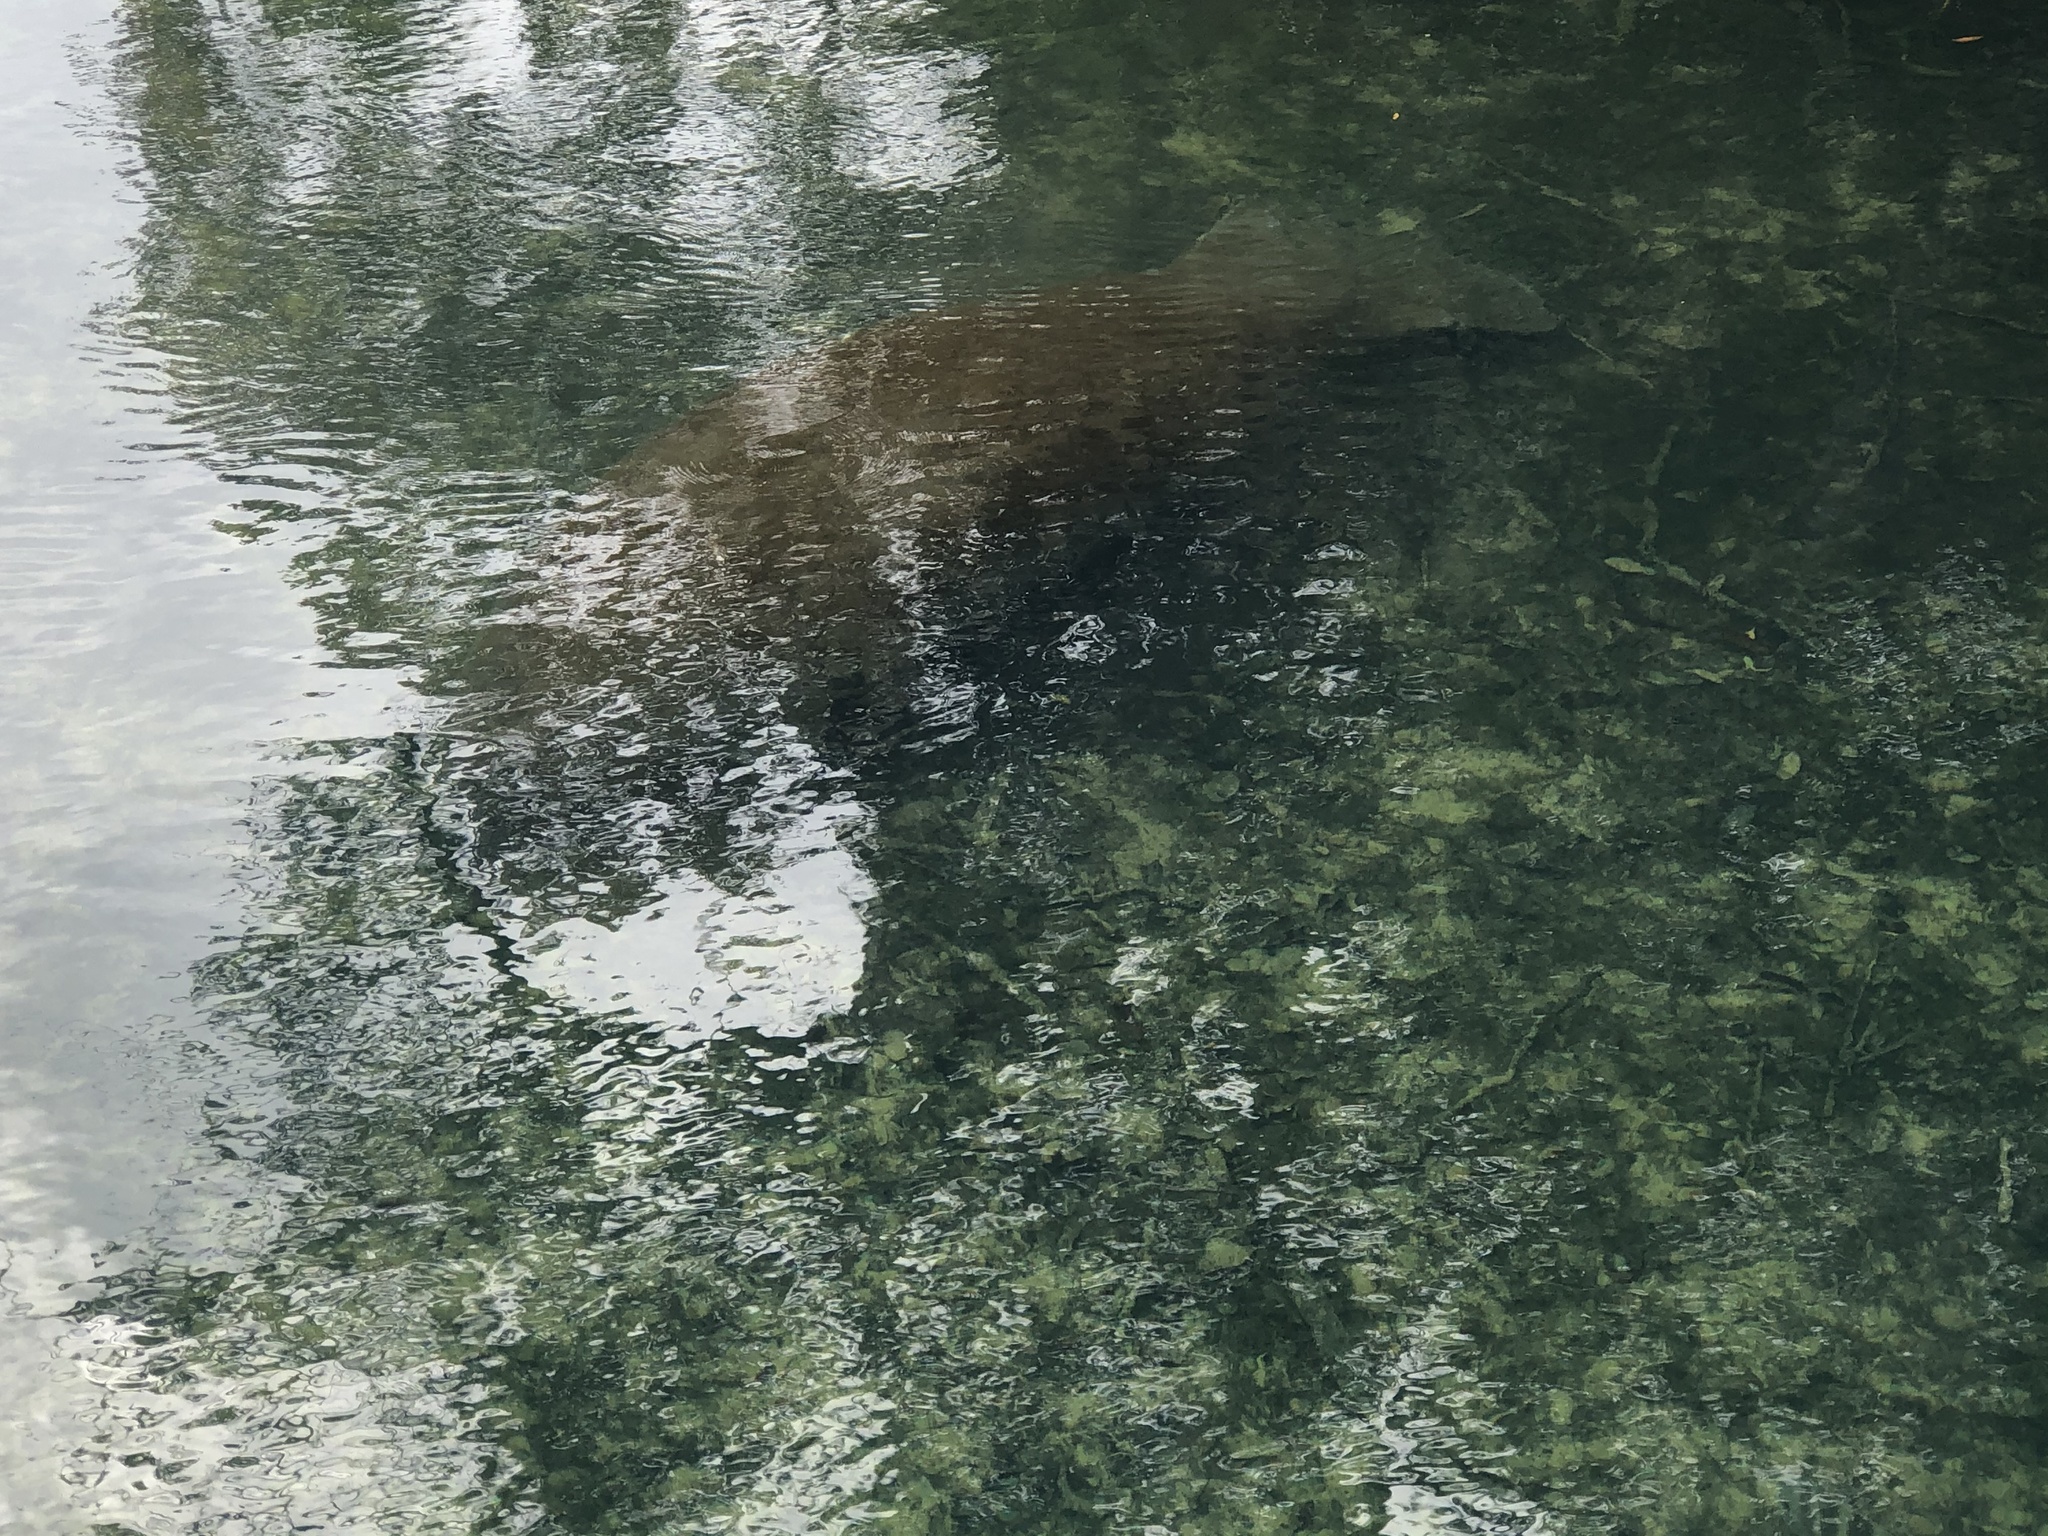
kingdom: Animalia
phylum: Chordata
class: Mammalia
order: Sirenia
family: Trichechidae
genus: Trichechus
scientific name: Trichechus manatus
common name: West indian manatee
